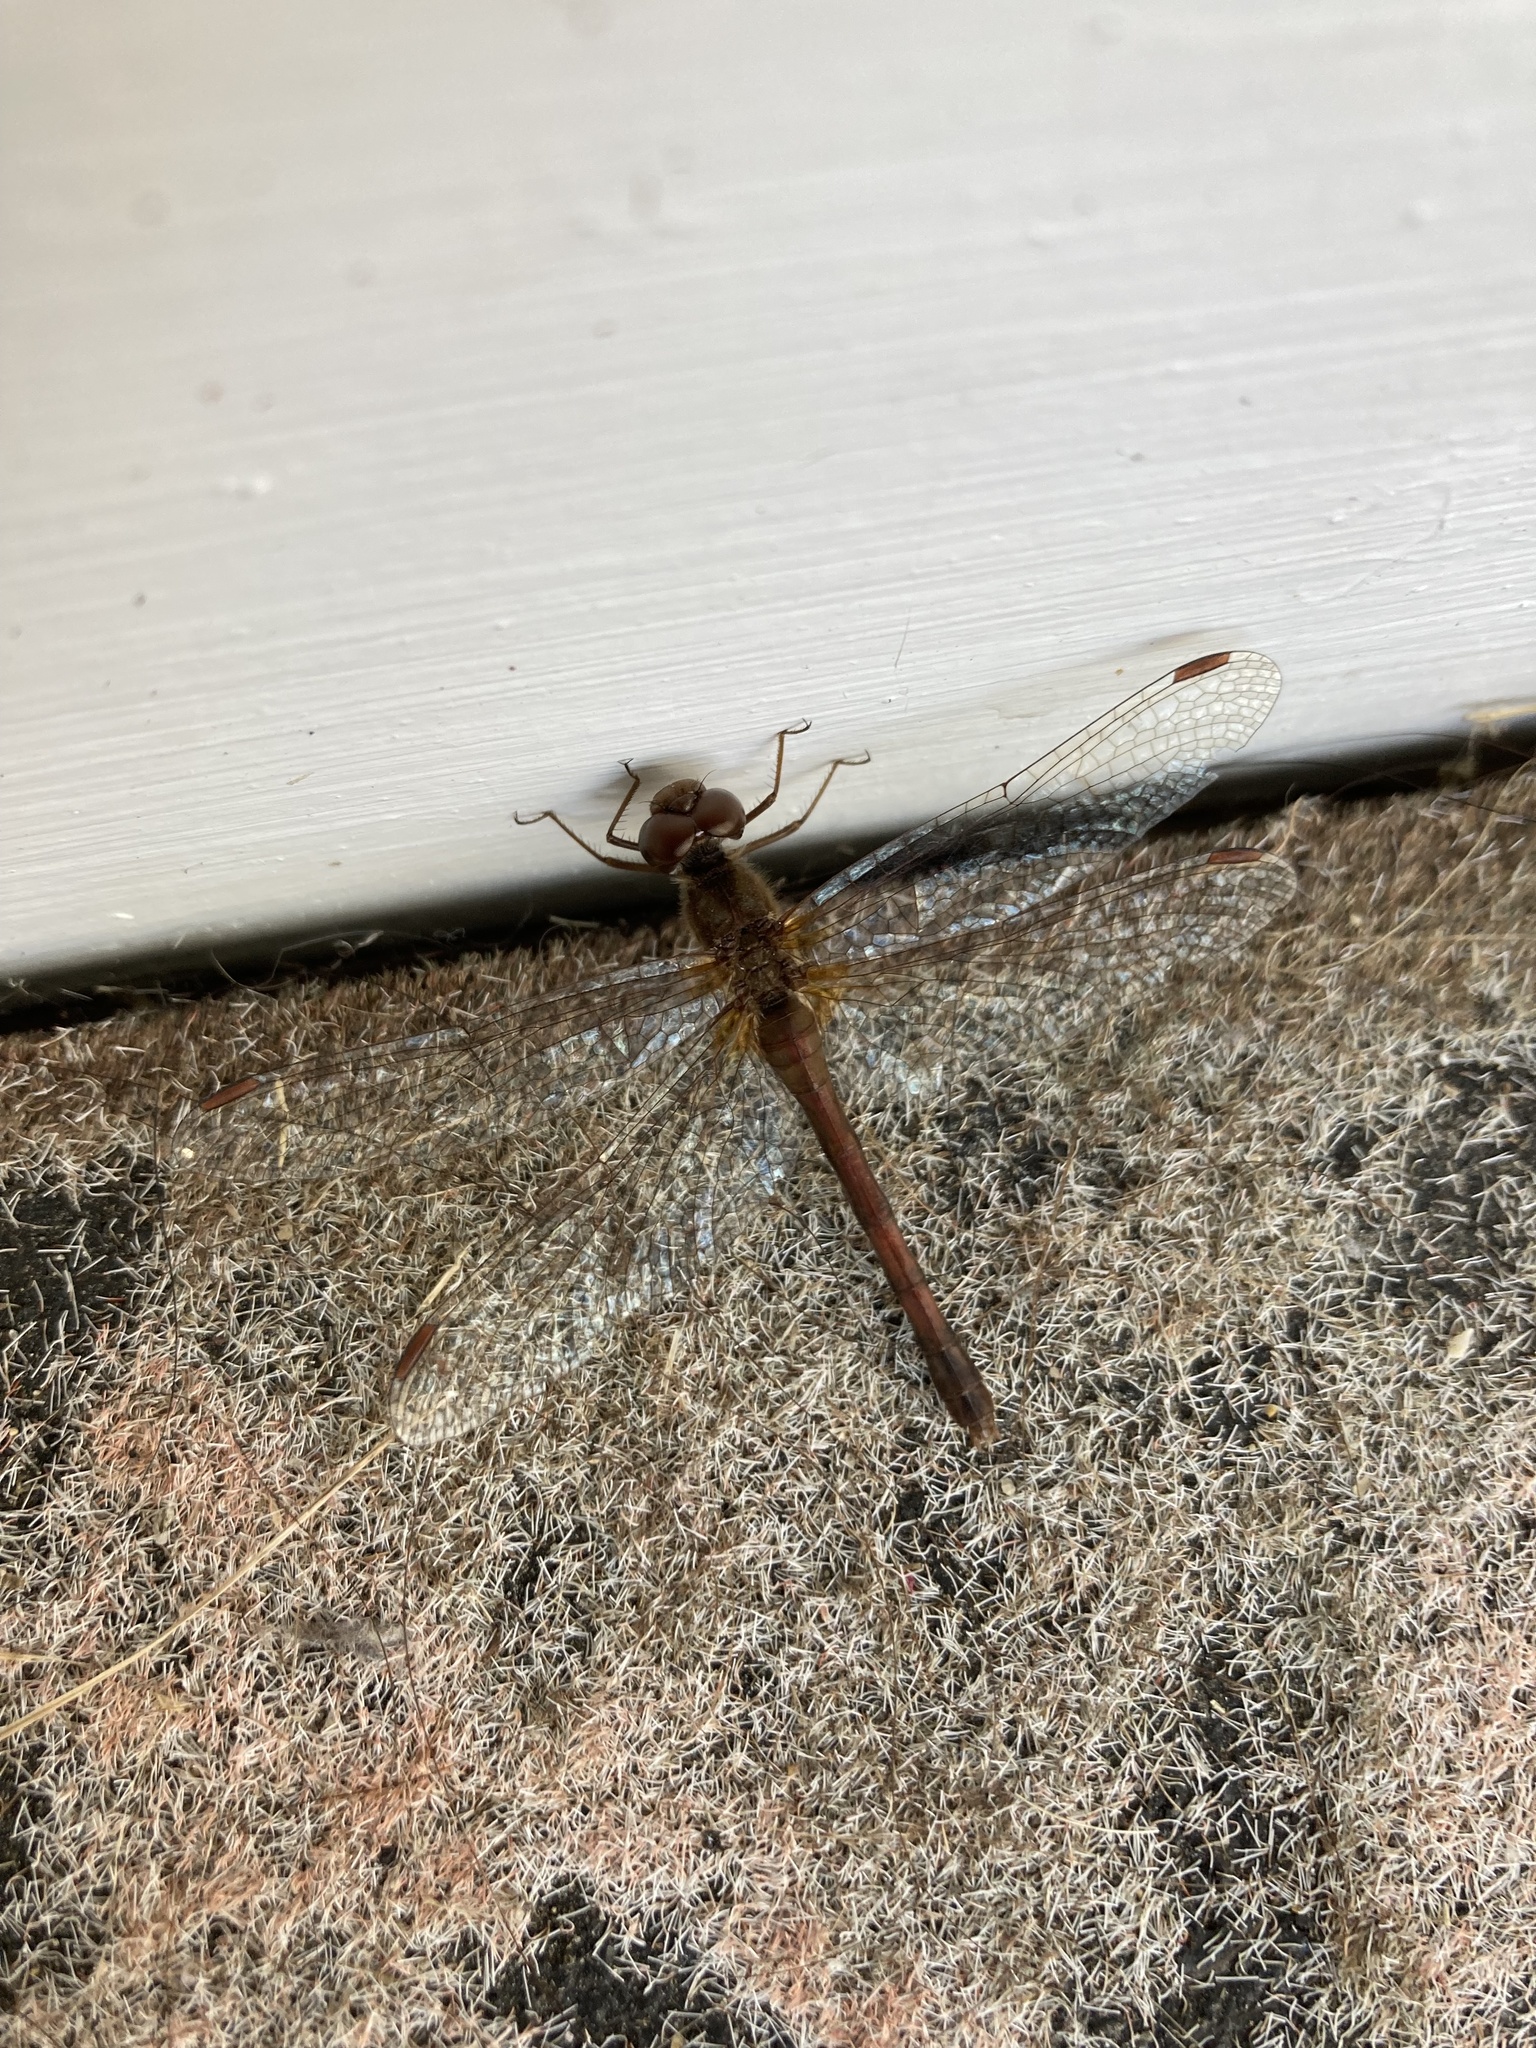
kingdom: Animalia
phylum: Arthropoda
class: Insecta
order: Odonata
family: Libellulidae
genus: Sympetrum
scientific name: Sympetrum vicinum
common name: Autumn meadowhawk
